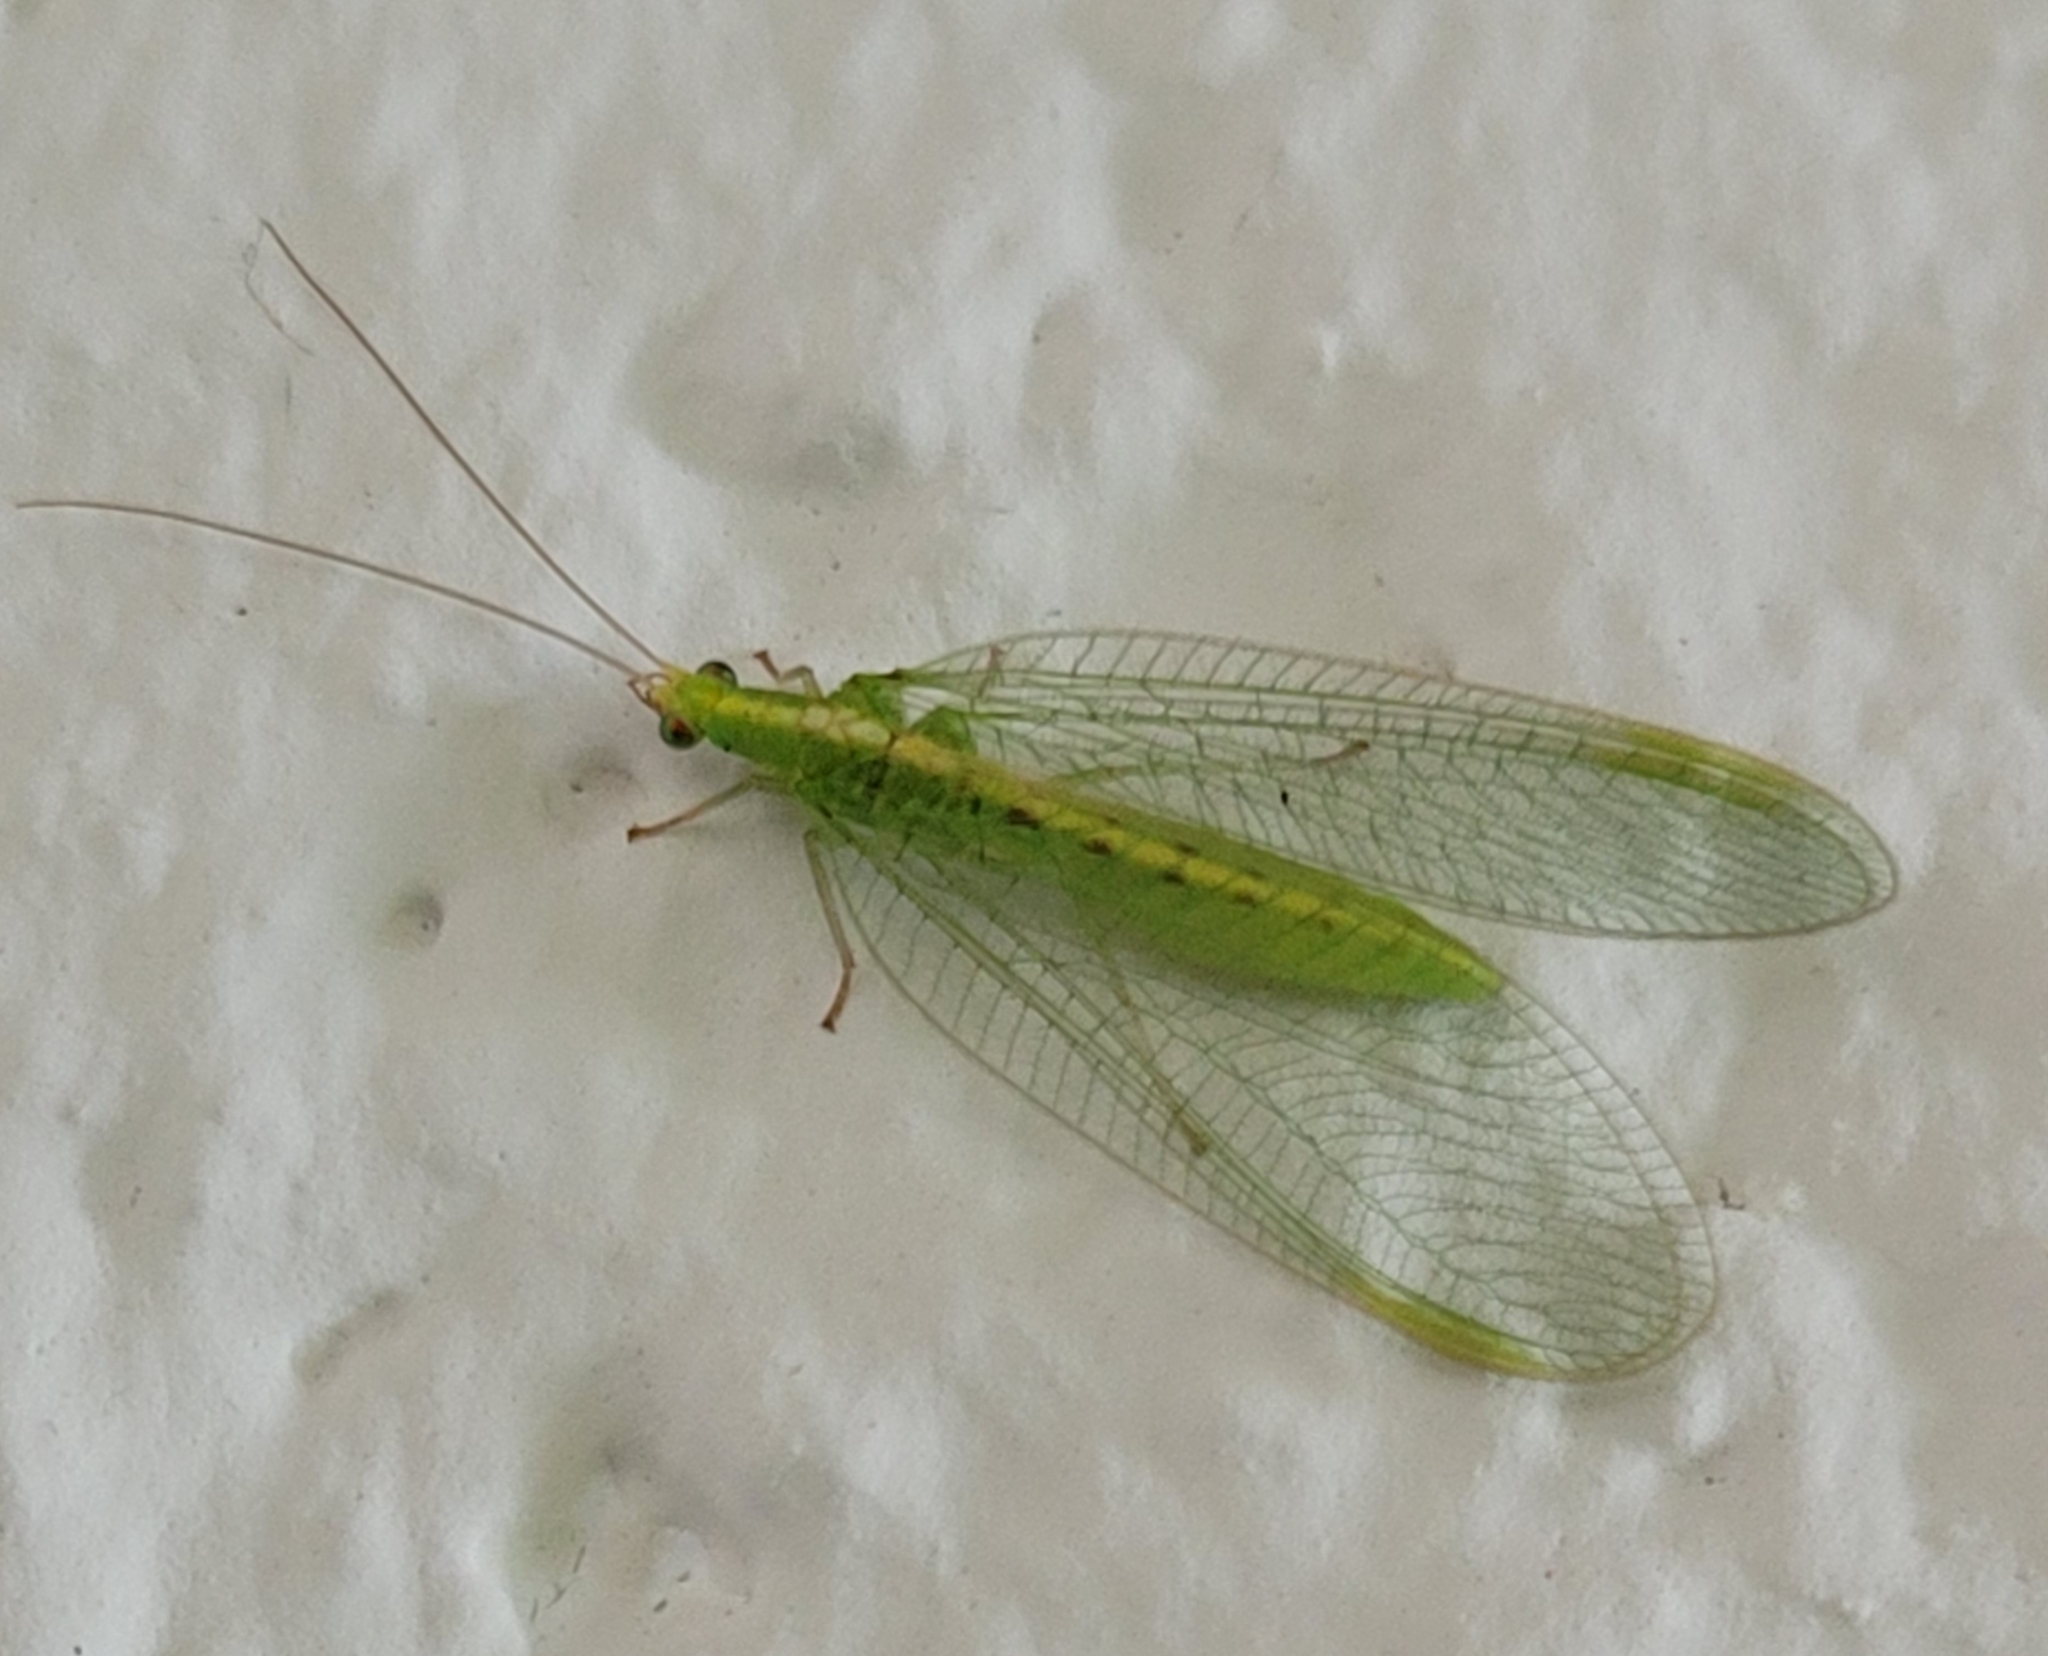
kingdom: Animalia
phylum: Arthropoda
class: Insecta
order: Neuroptera
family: Chrysopidae
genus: Chrysoperla
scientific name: Chrysoperla
